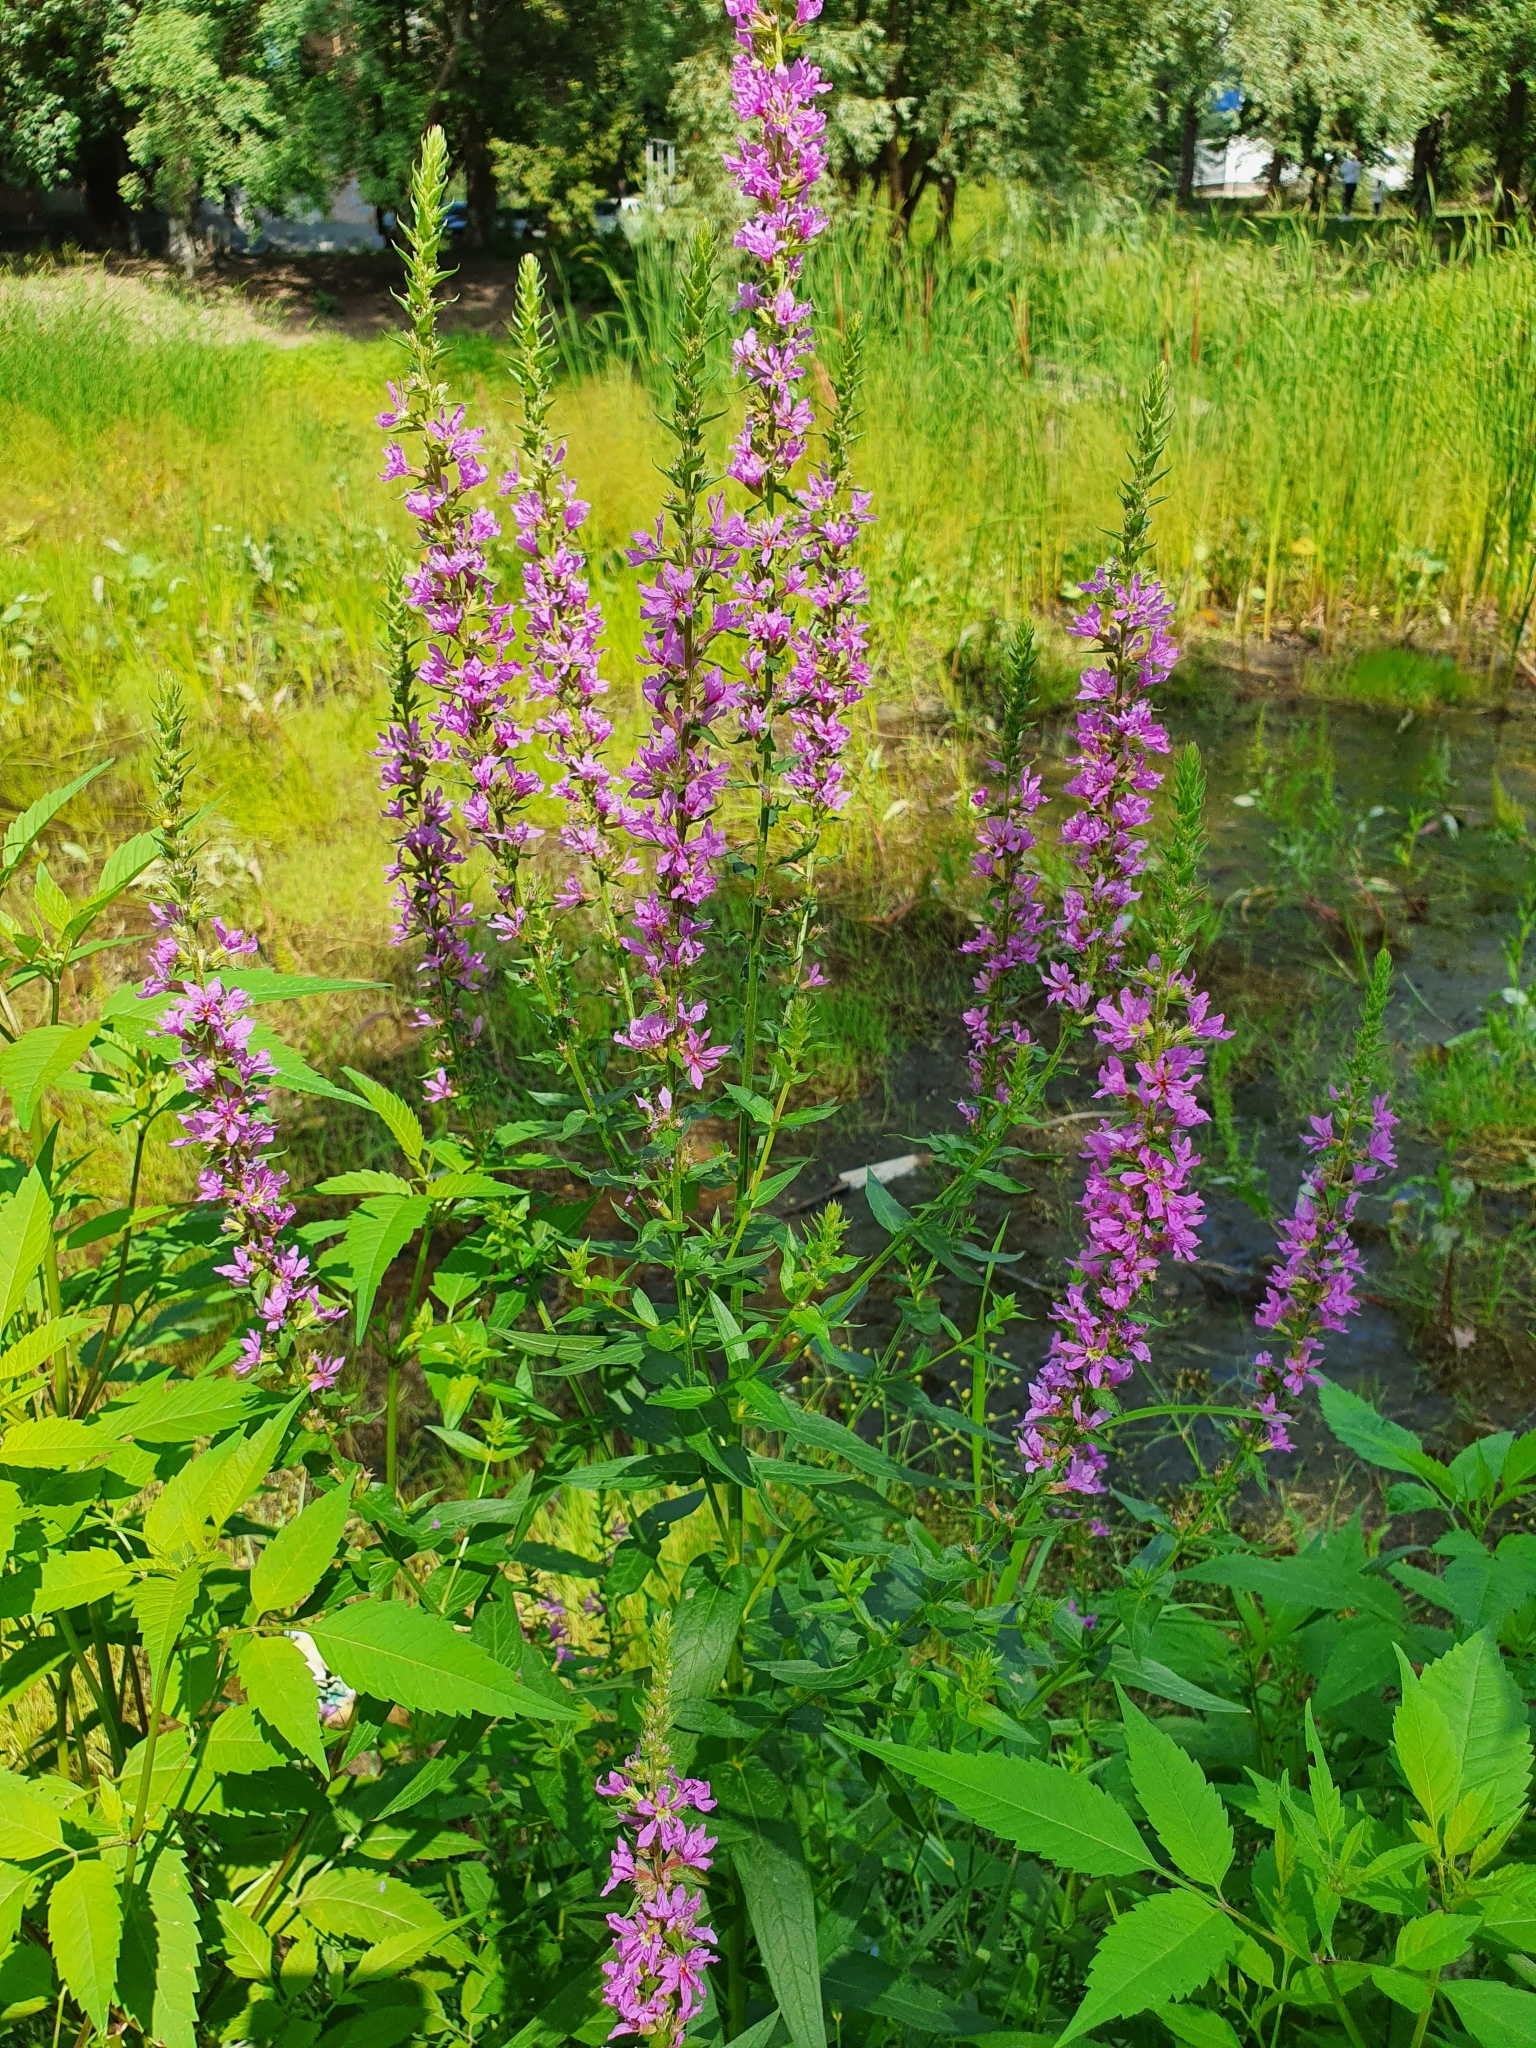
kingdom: Plantae
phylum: Tracheophyta
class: Magnoliopsida
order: Myrtales
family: Lythraceae
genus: Lythrum
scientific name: Lythrum salicaria
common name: Purple loosestrife
